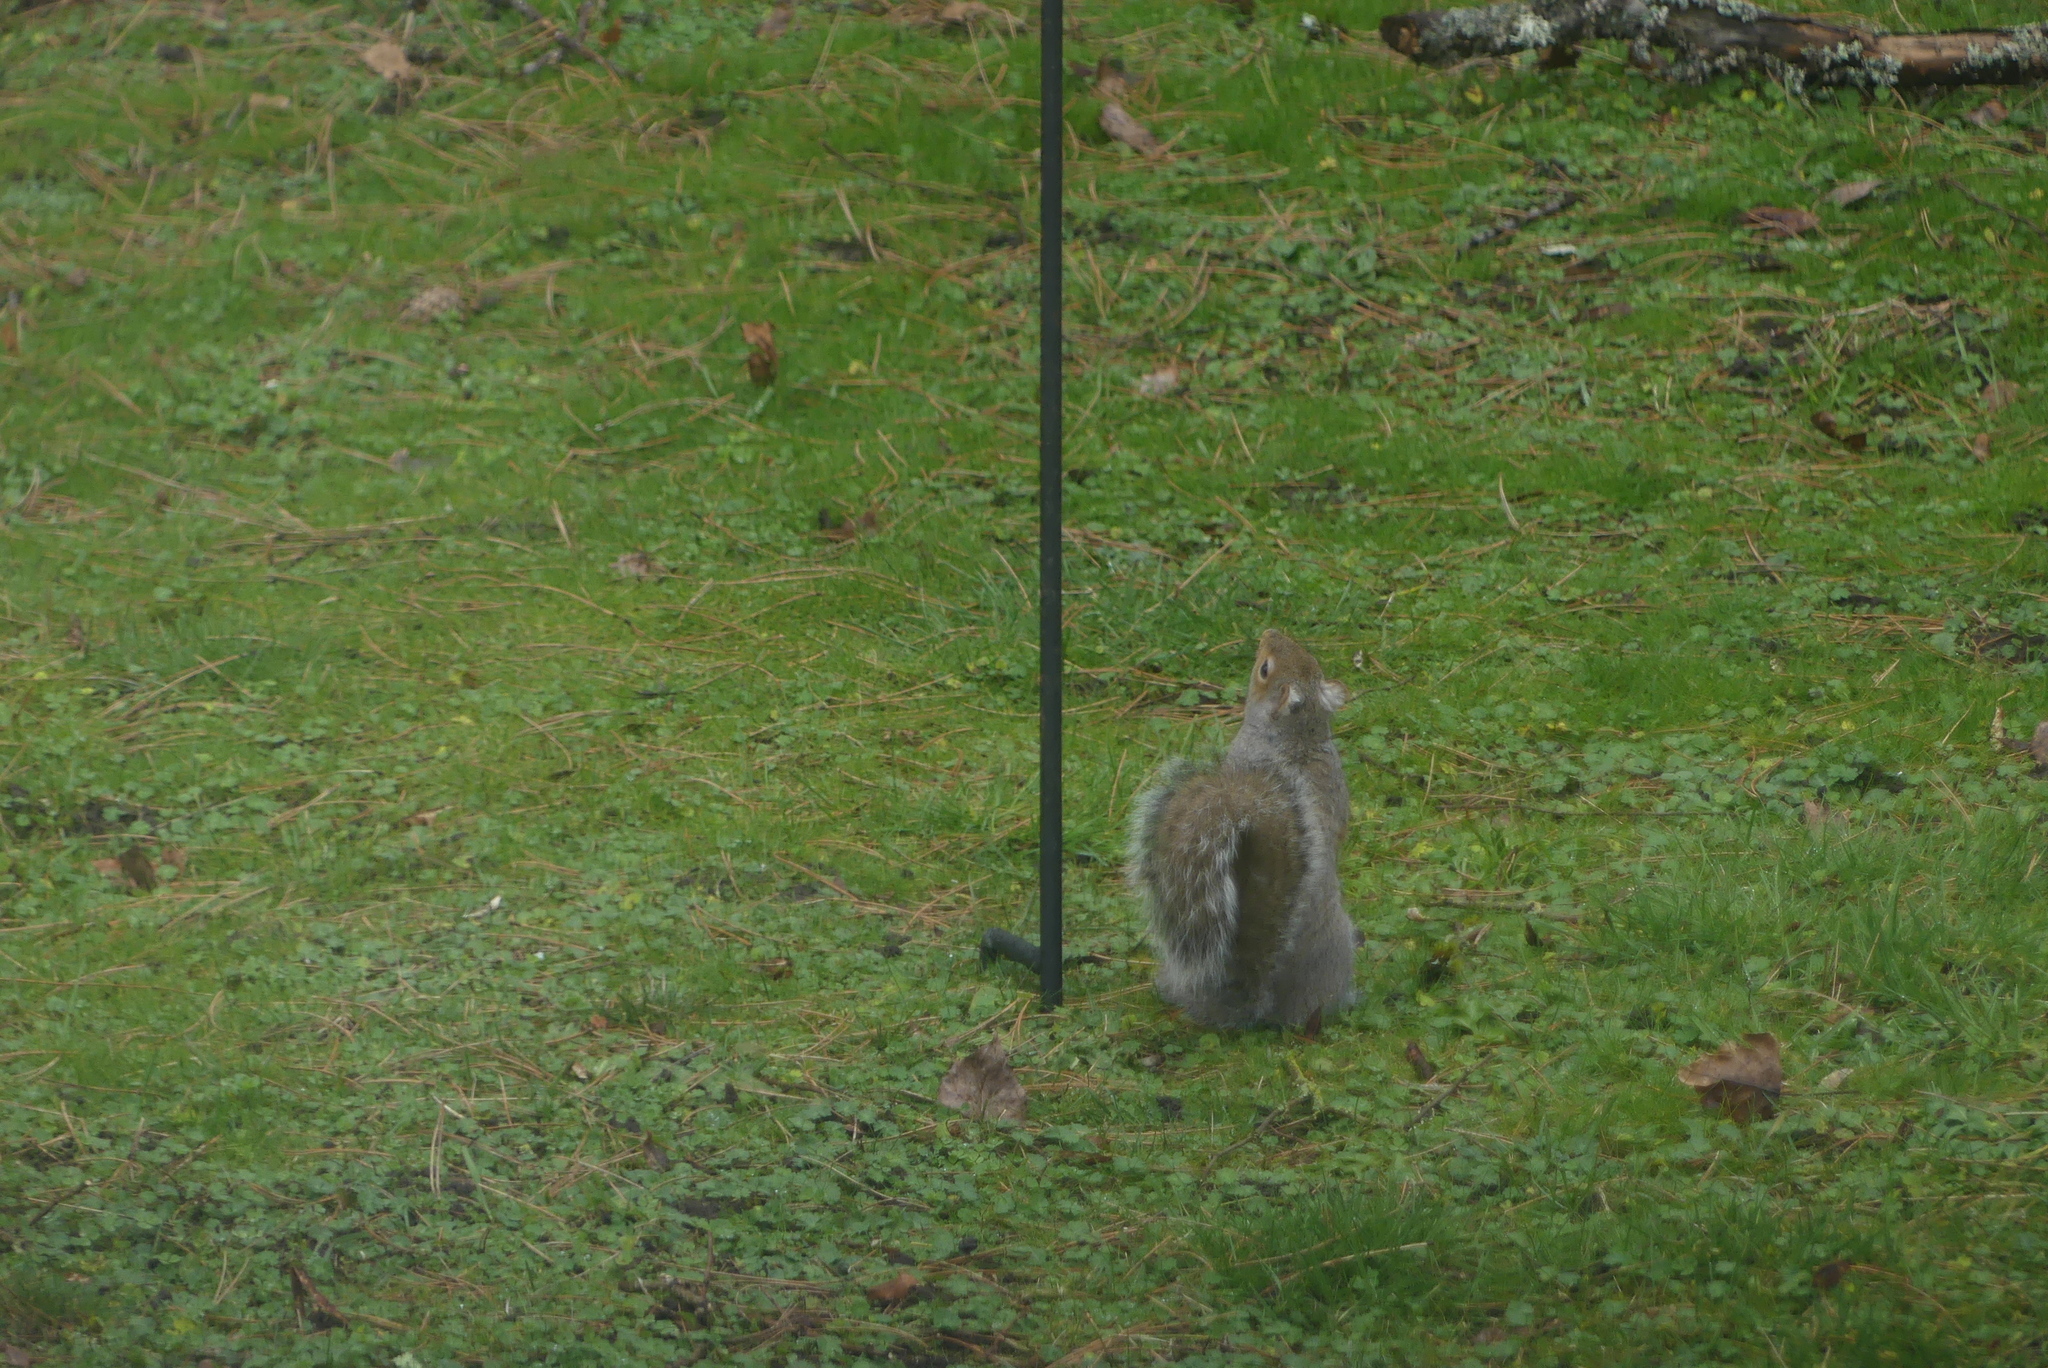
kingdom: Animalia
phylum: Chordata
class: Mammalia
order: Rodentia
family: Sciuridae
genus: Sciurus
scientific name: Sciurus carolinensis
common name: Eastern gray squirrel
